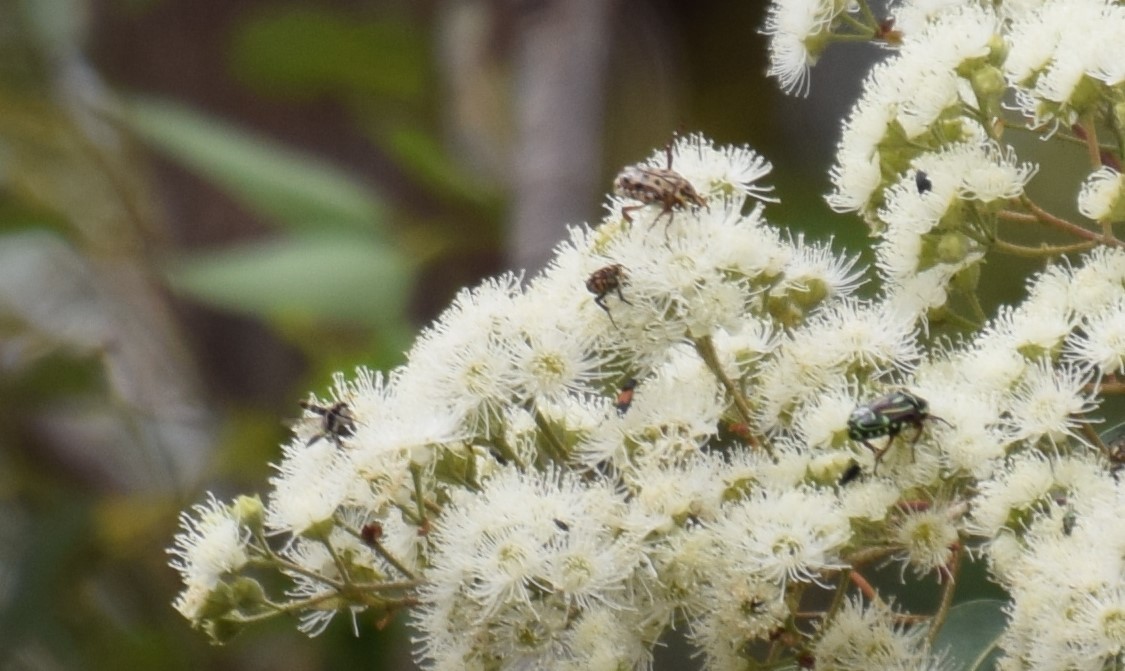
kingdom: Animalia
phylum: Arthropoda
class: Insecta
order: Coleoptera
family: Scarabaeidae
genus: Neorrhina
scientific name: Neorrhina punctatum
